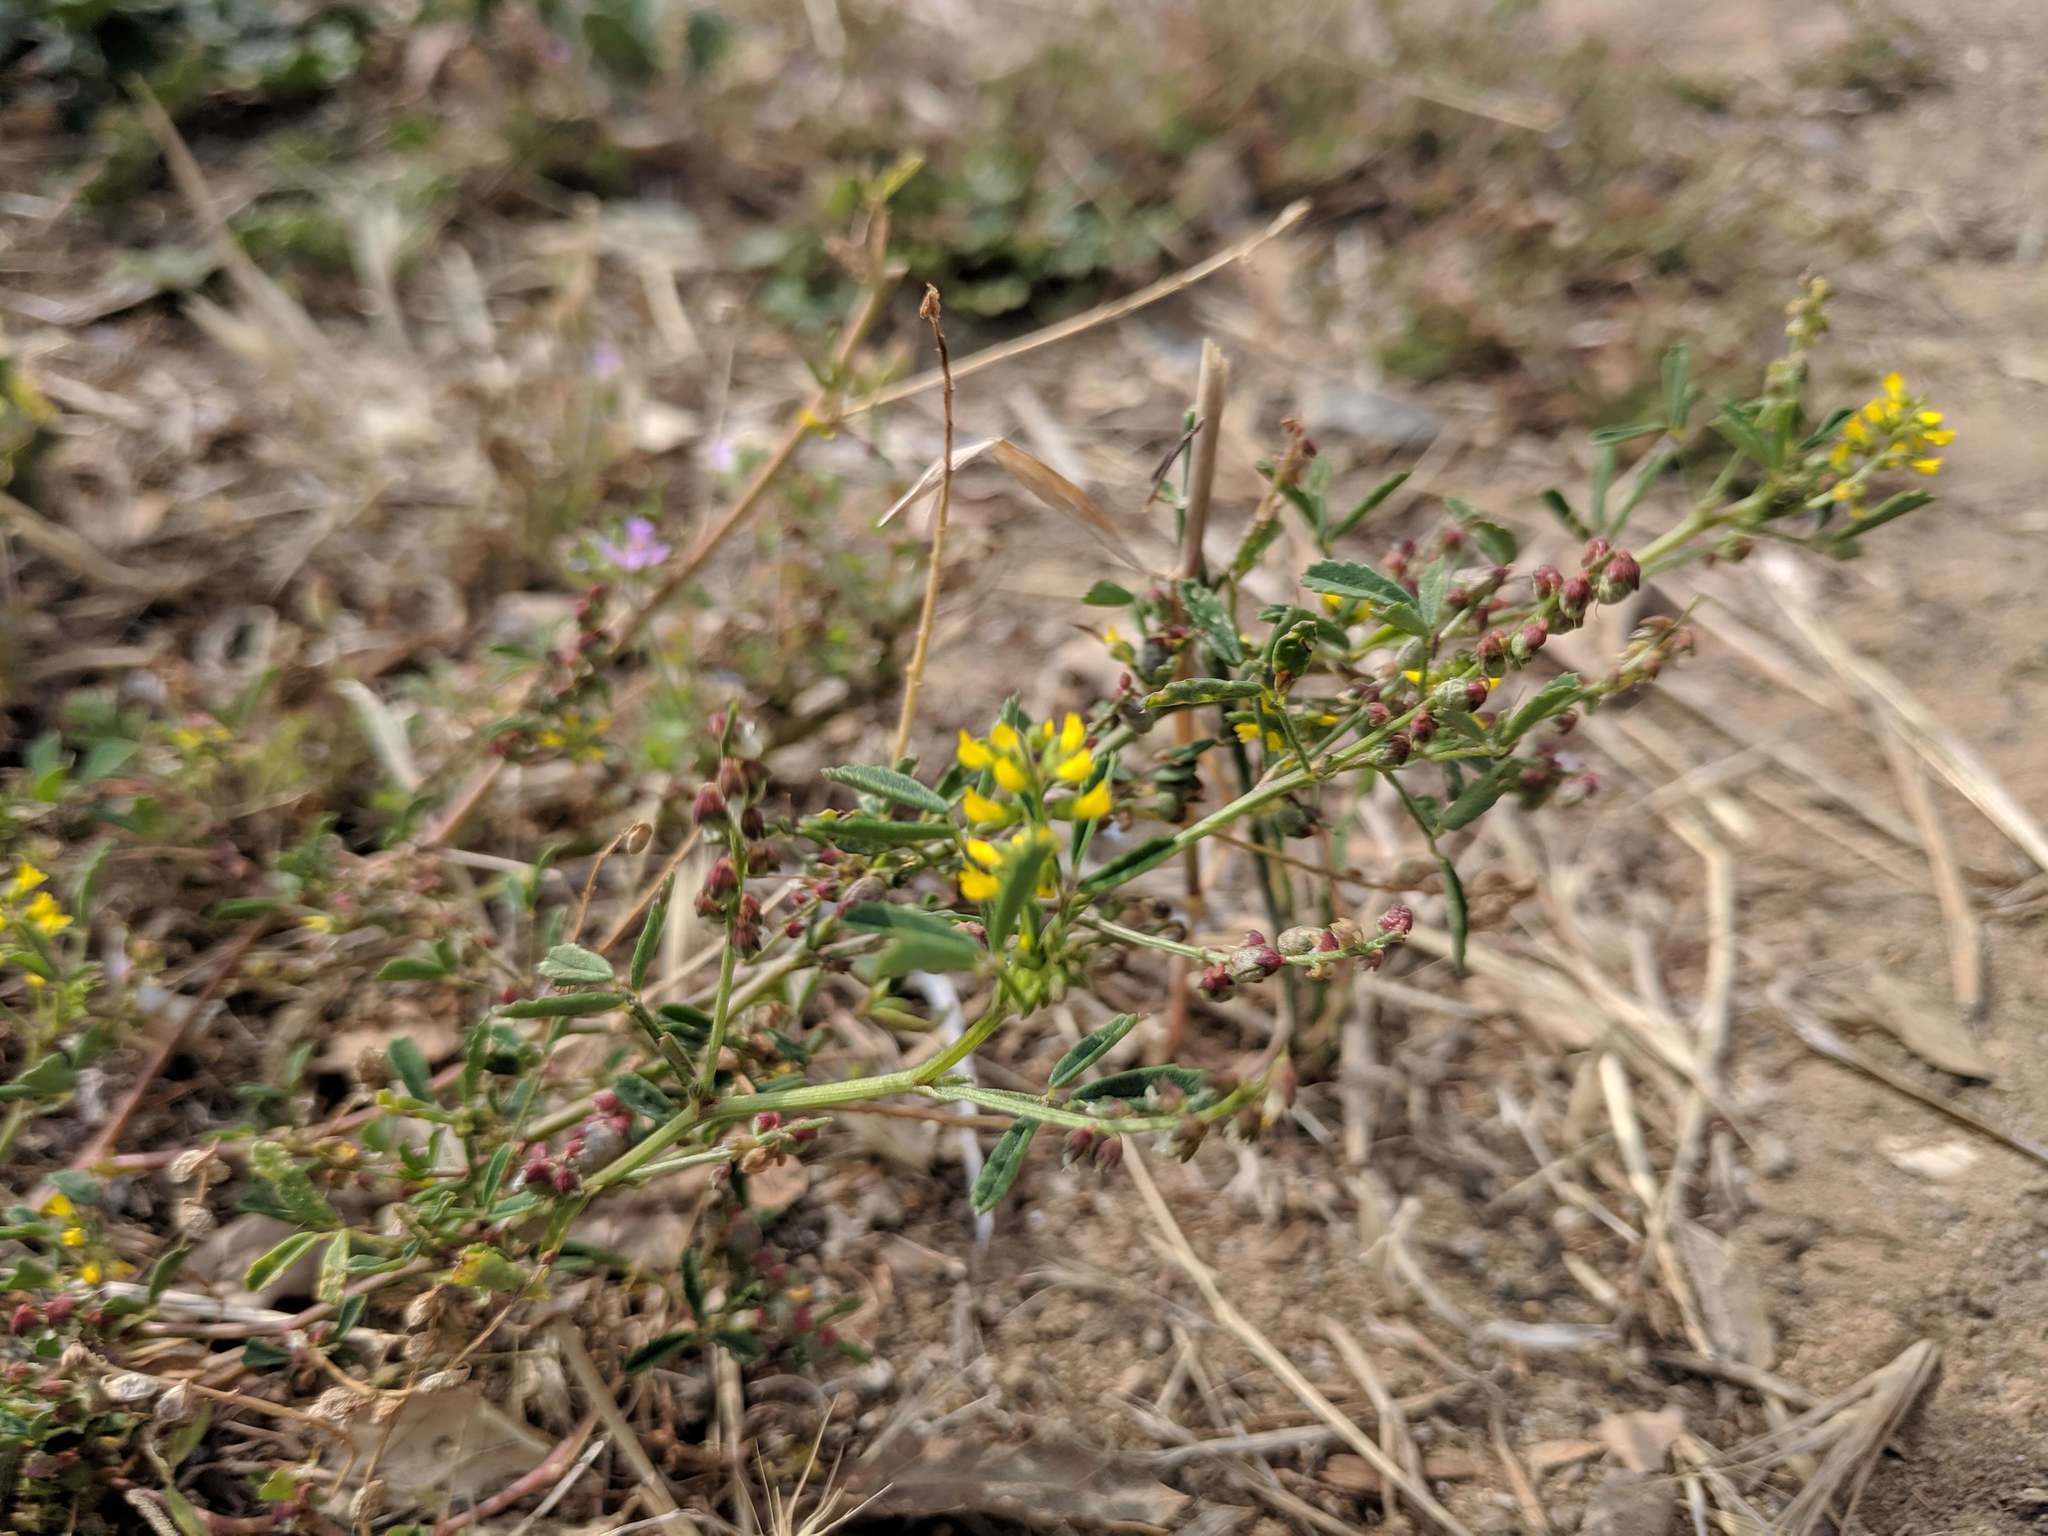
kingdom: Plantae
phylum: Tracheophyta
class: Magnoliopsida
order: Fabales
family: Fabaceae
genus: Melilotus
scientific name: Melilotus indicus
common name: Small melilot
